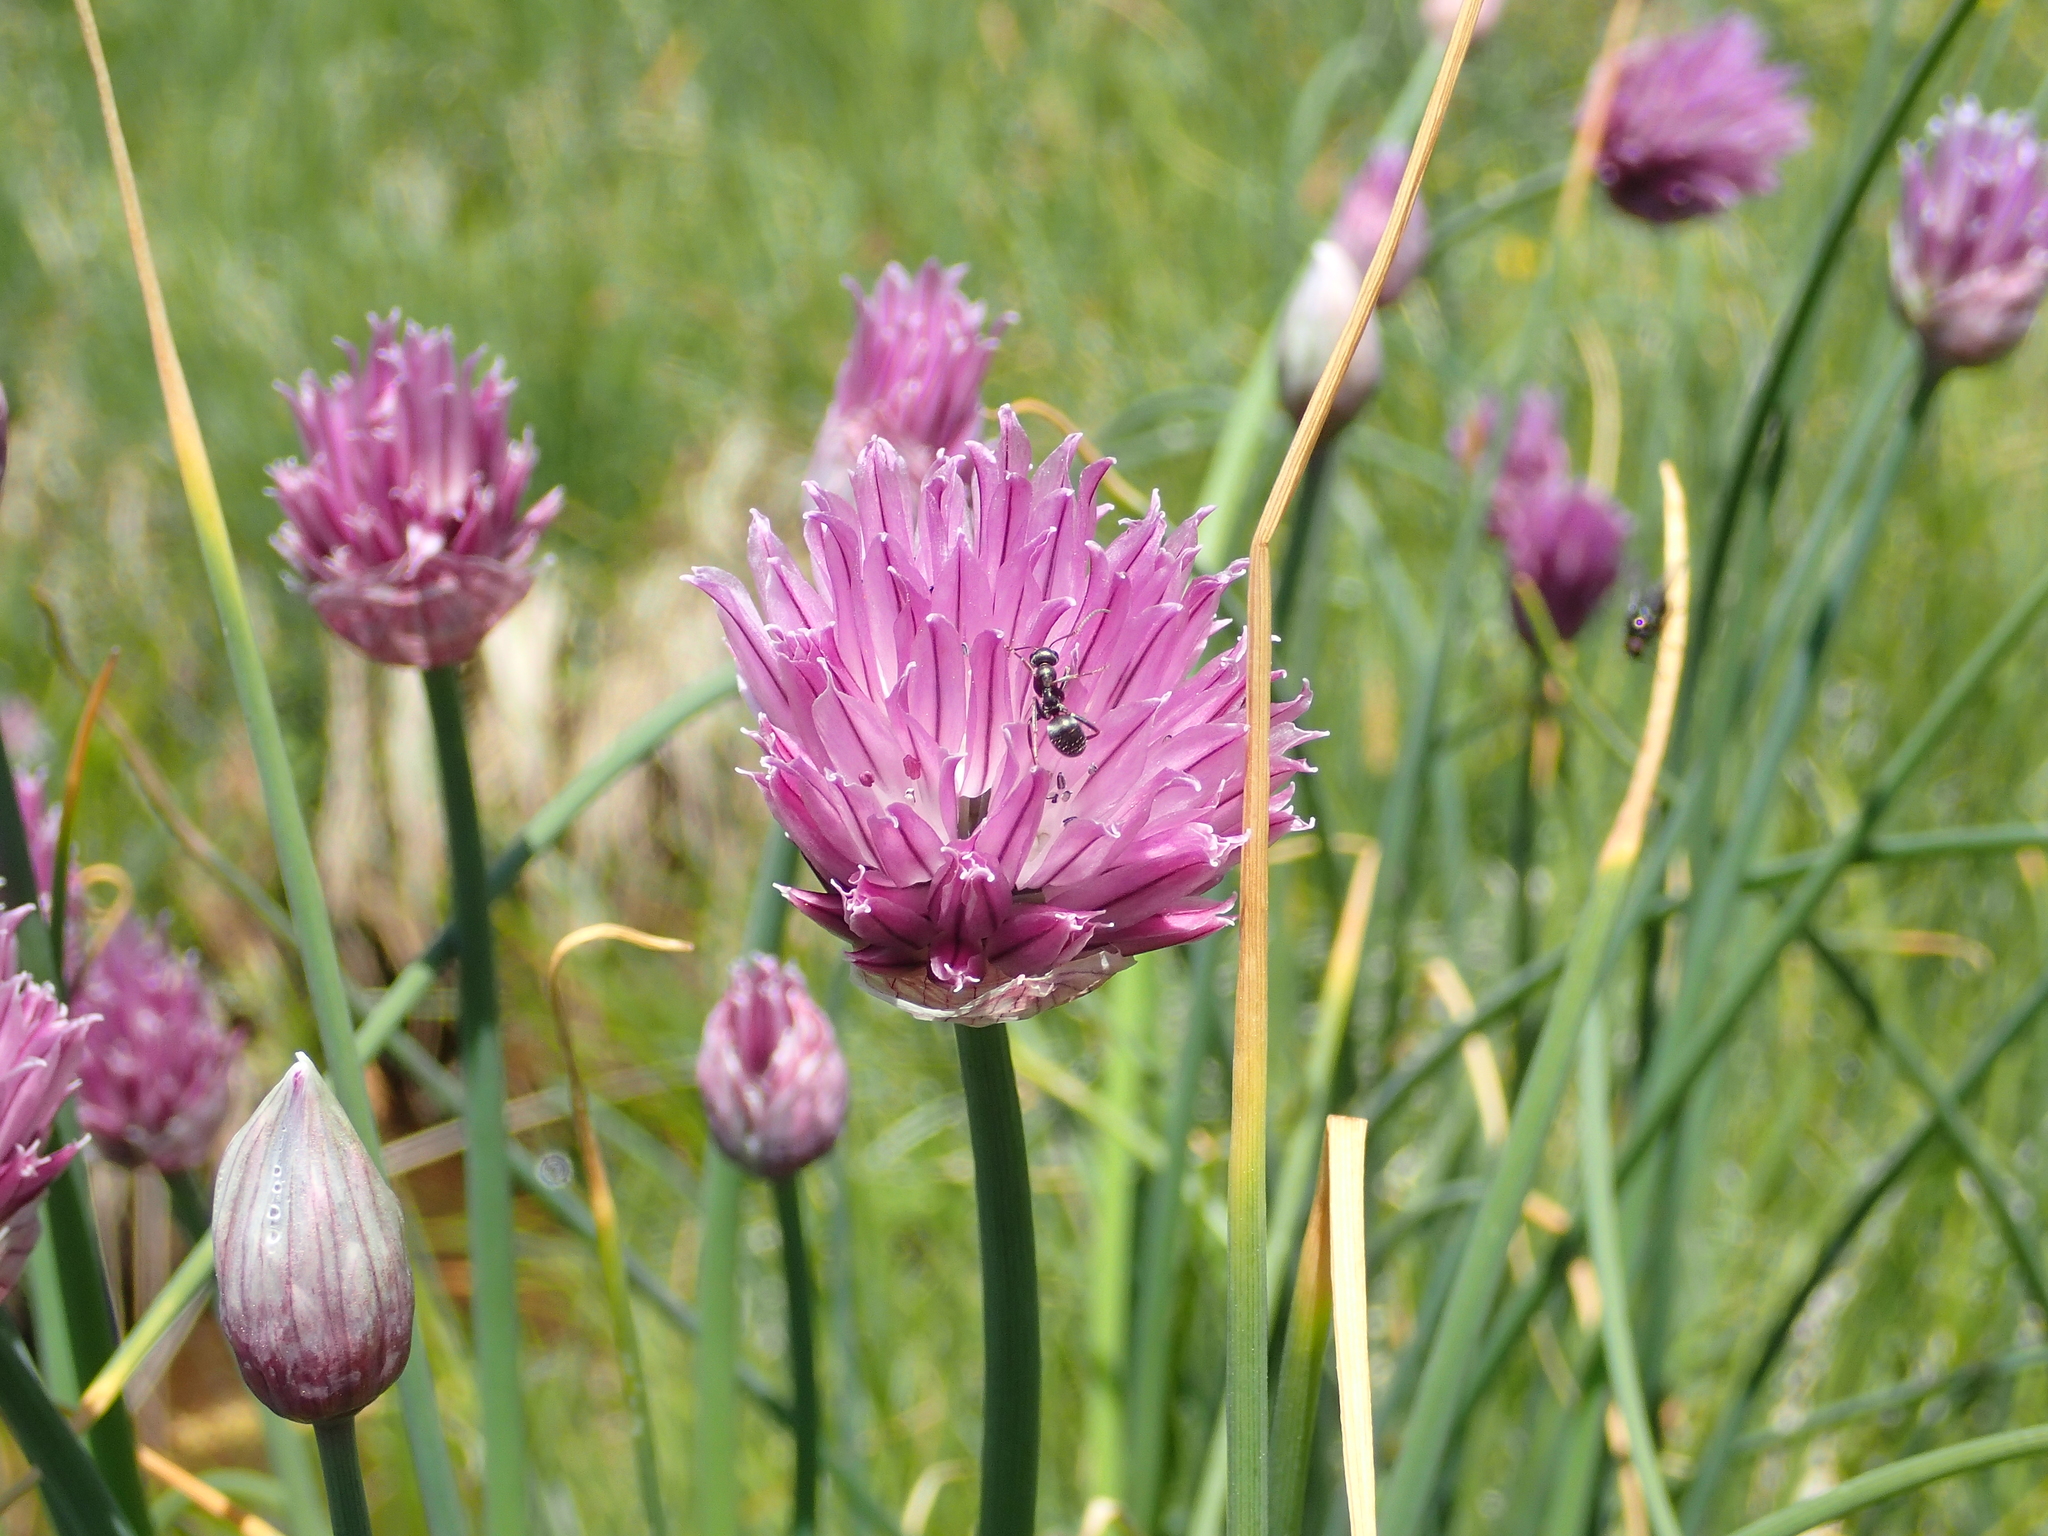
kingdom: Plantae
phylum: Tracheophyta
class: Liliopsida
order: Asparagales
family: Amaryllidaceae
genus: Allium
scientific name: Allium schoenoprasum
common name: Chives
